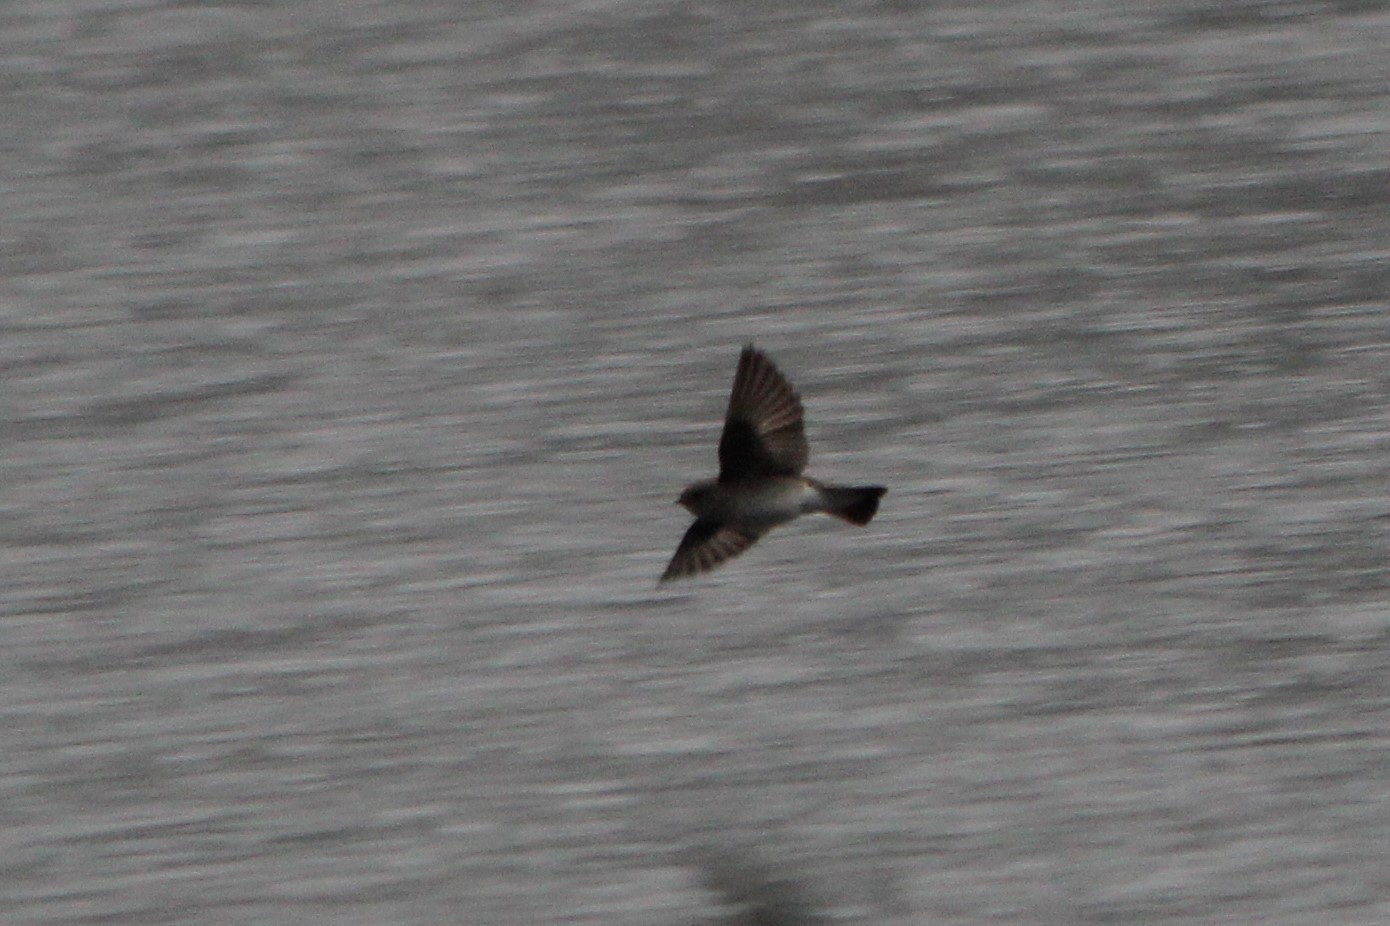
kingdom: Animalia
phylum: Chordata
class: Aves
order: Passeriformes
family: Hirundinidae
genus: Stelgidopteryx
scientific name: Stelgidopteryx serripennis
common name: Northern rough-winged swallow
